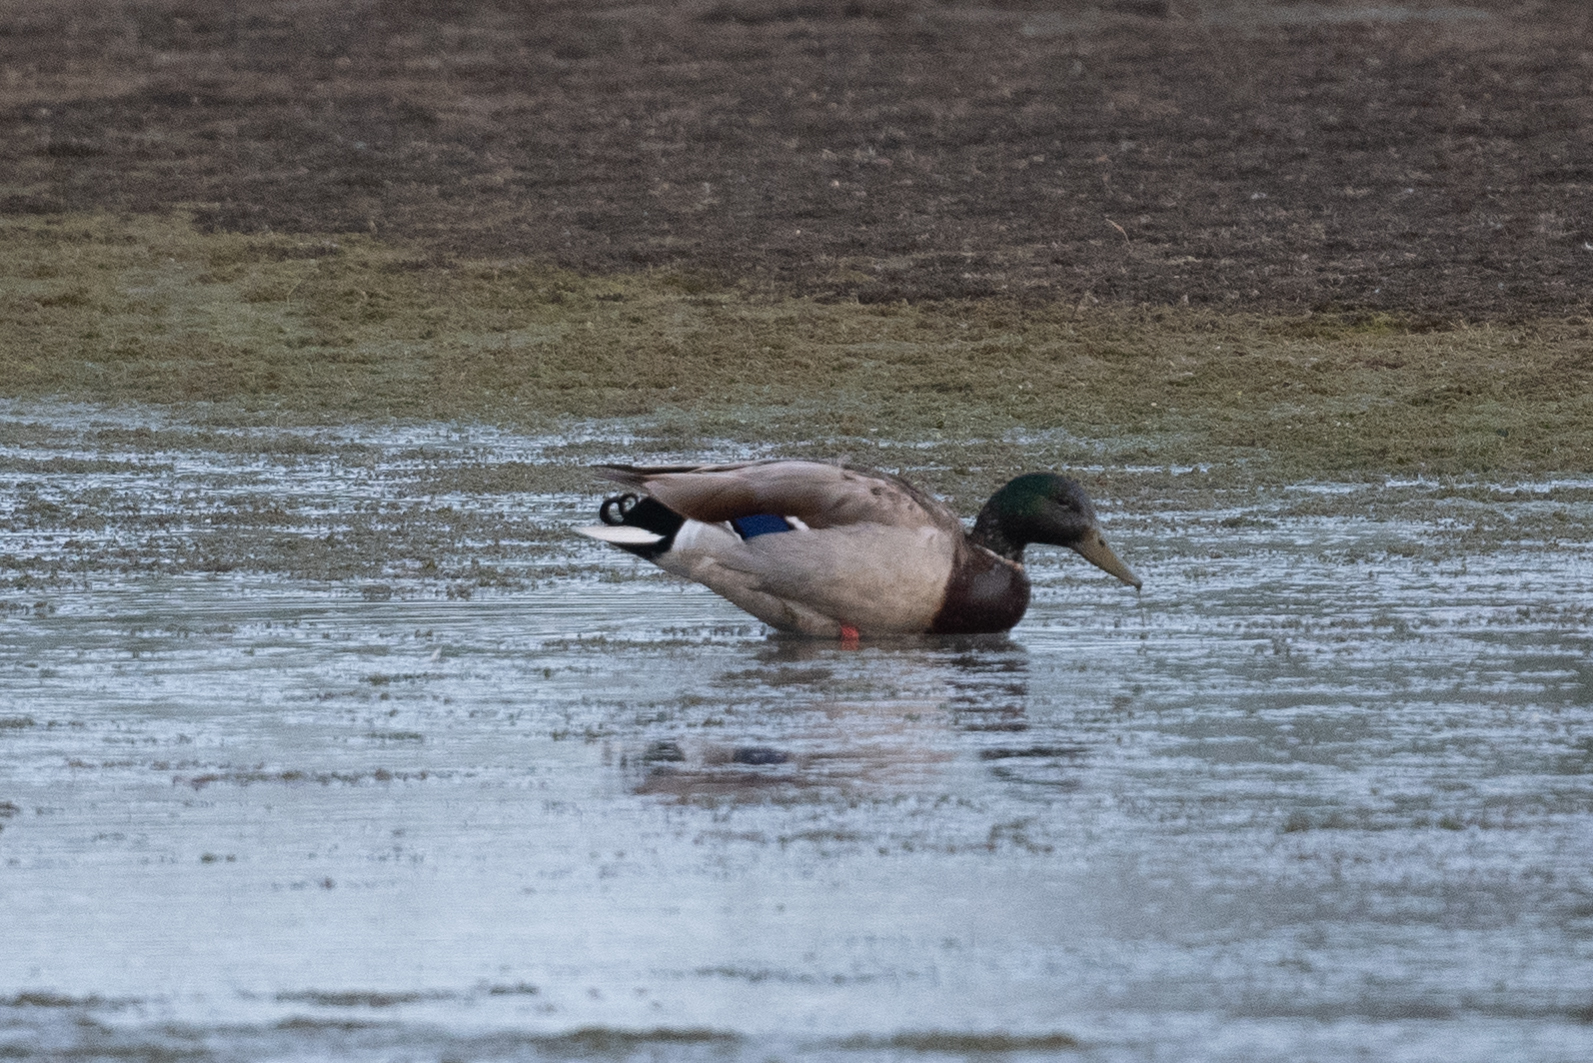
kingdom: Animalia
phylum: Chordata
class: Aves
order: Anseriformes
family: Anatidae
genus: Anas
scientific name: Anas platyrhynchos
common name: Mallard
